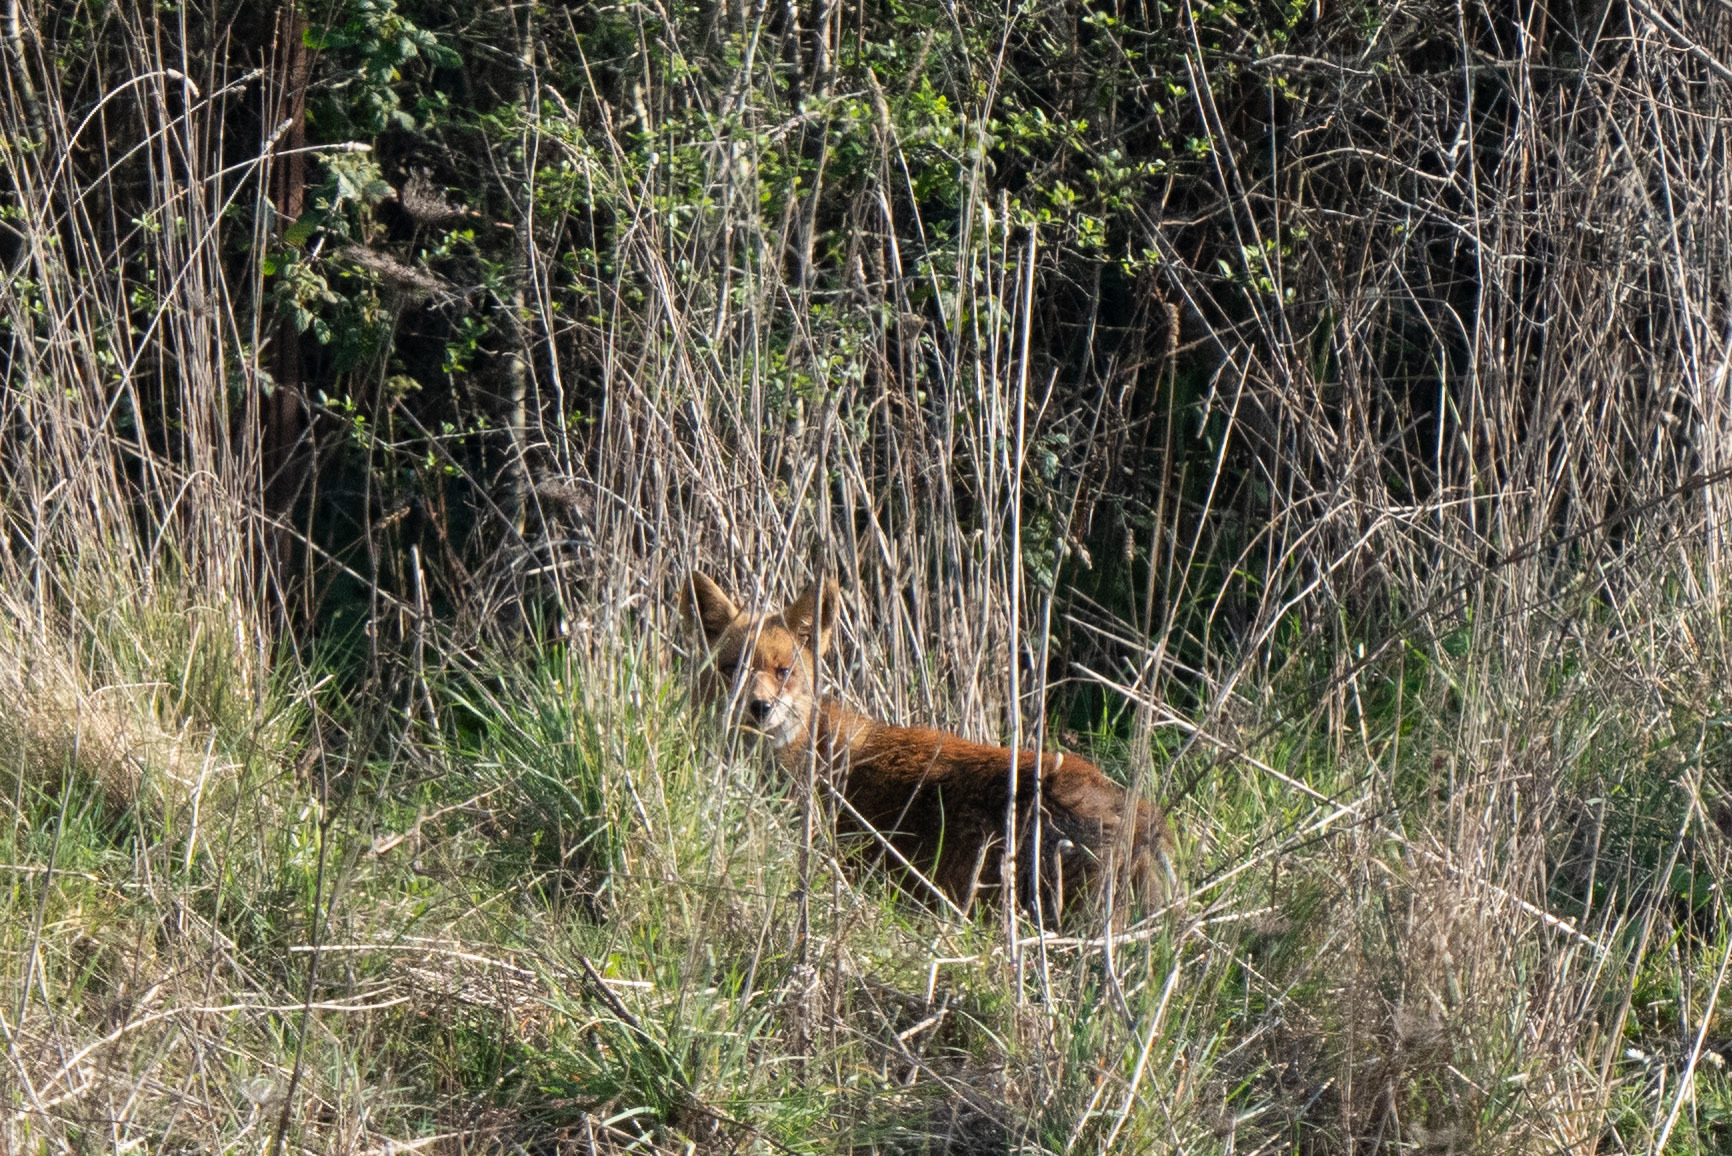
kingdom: Animalia
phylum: Chordata
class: Mammalia
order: Carnivora
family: Canidae
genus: Vulpes
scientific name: Vulpes vulpes
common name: Red fox
